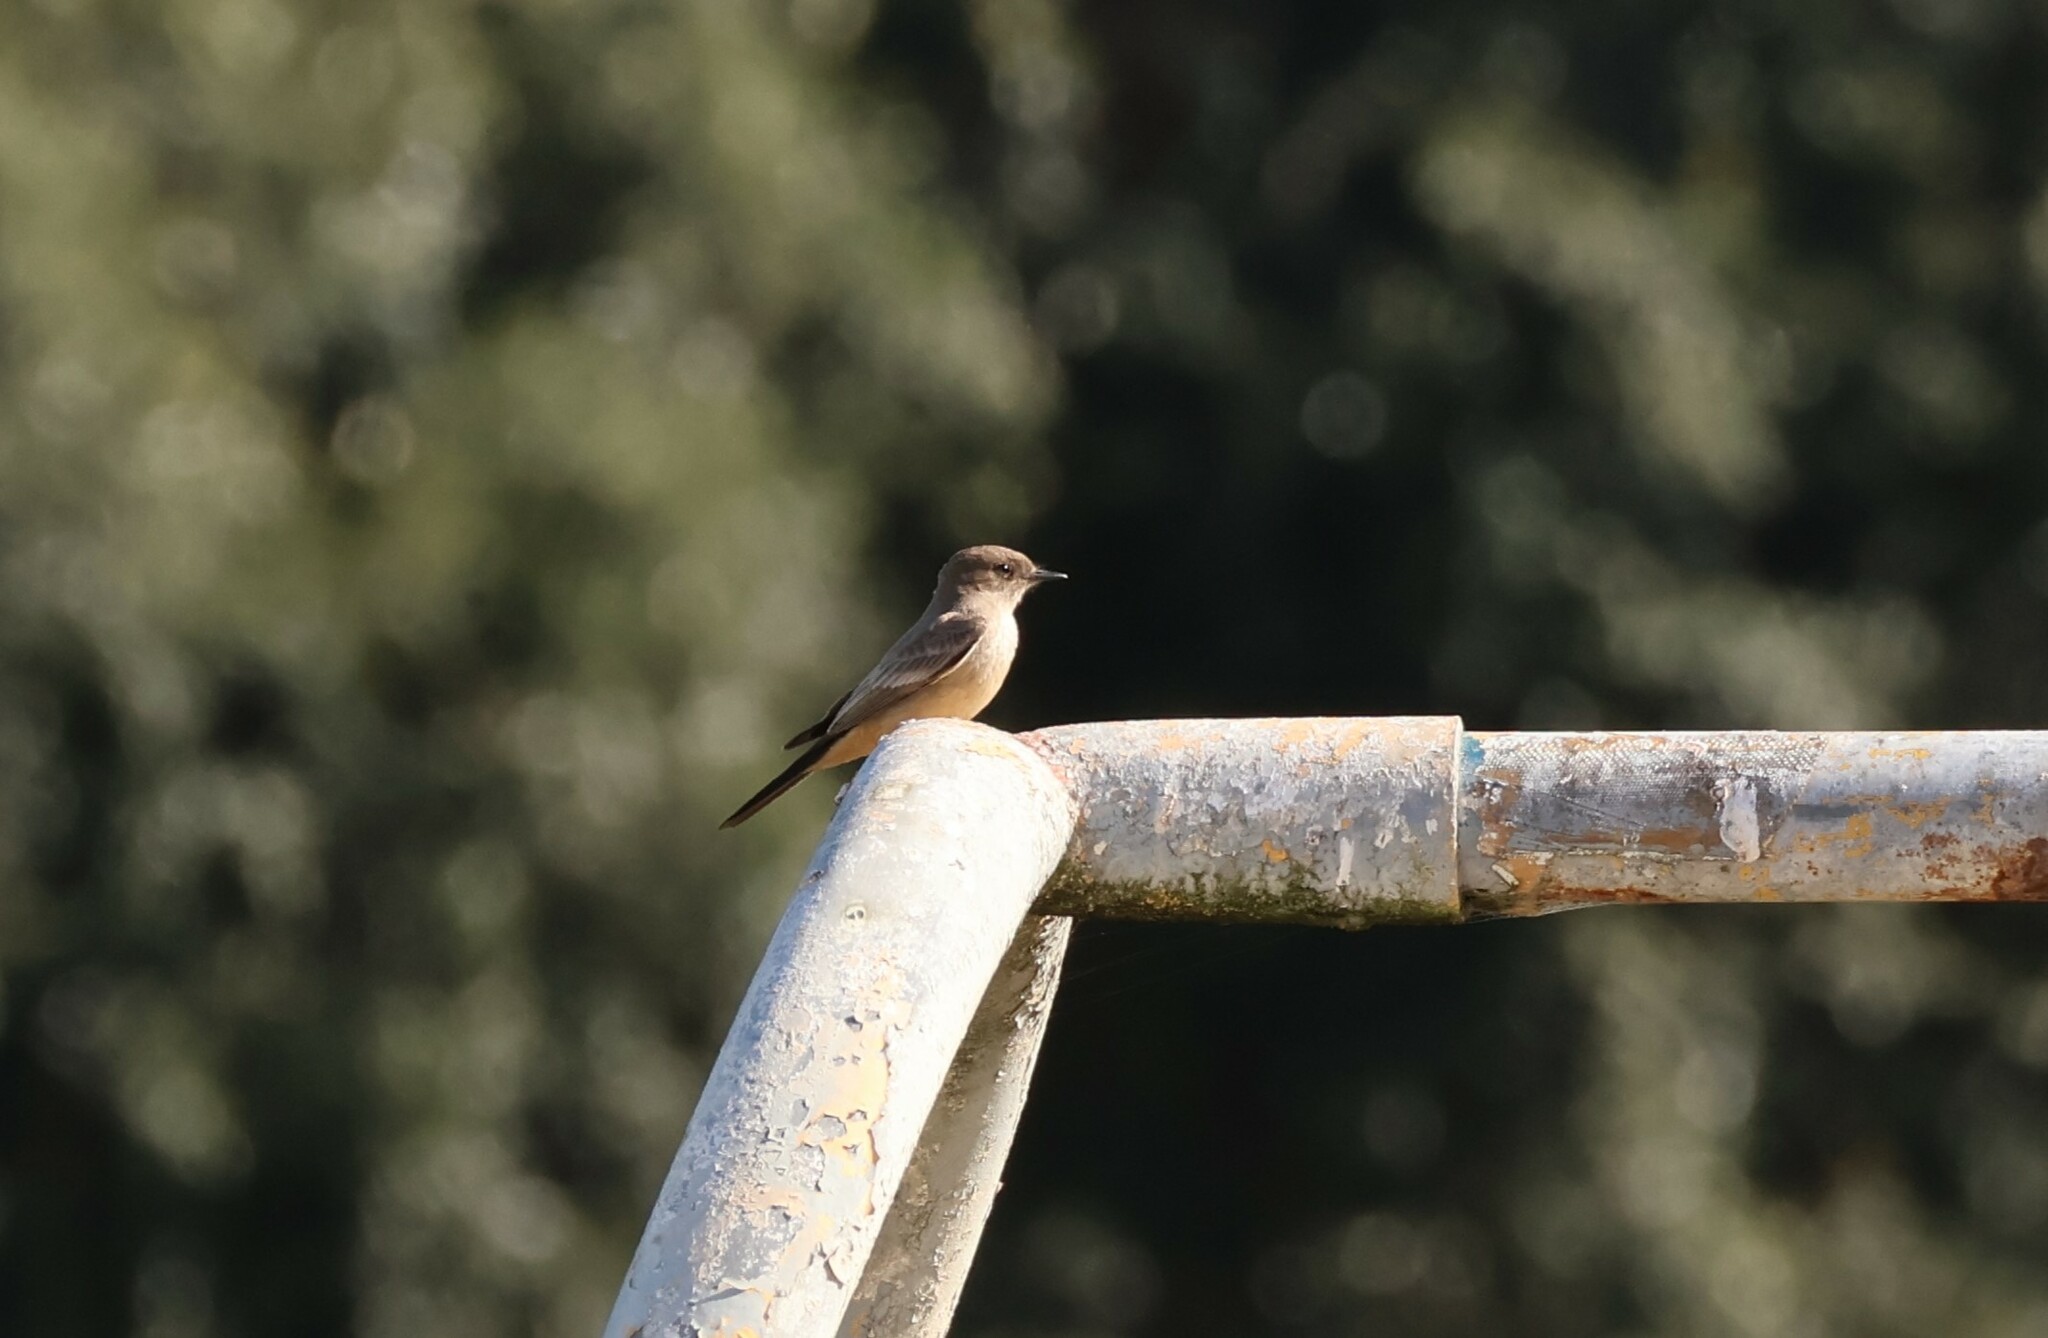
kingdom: Animalia
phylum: Chordata
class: Aves
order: Passeriformes
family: Tyrannidae
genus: Sayornis
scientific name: Sayornis saya
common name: Say's phoebe
